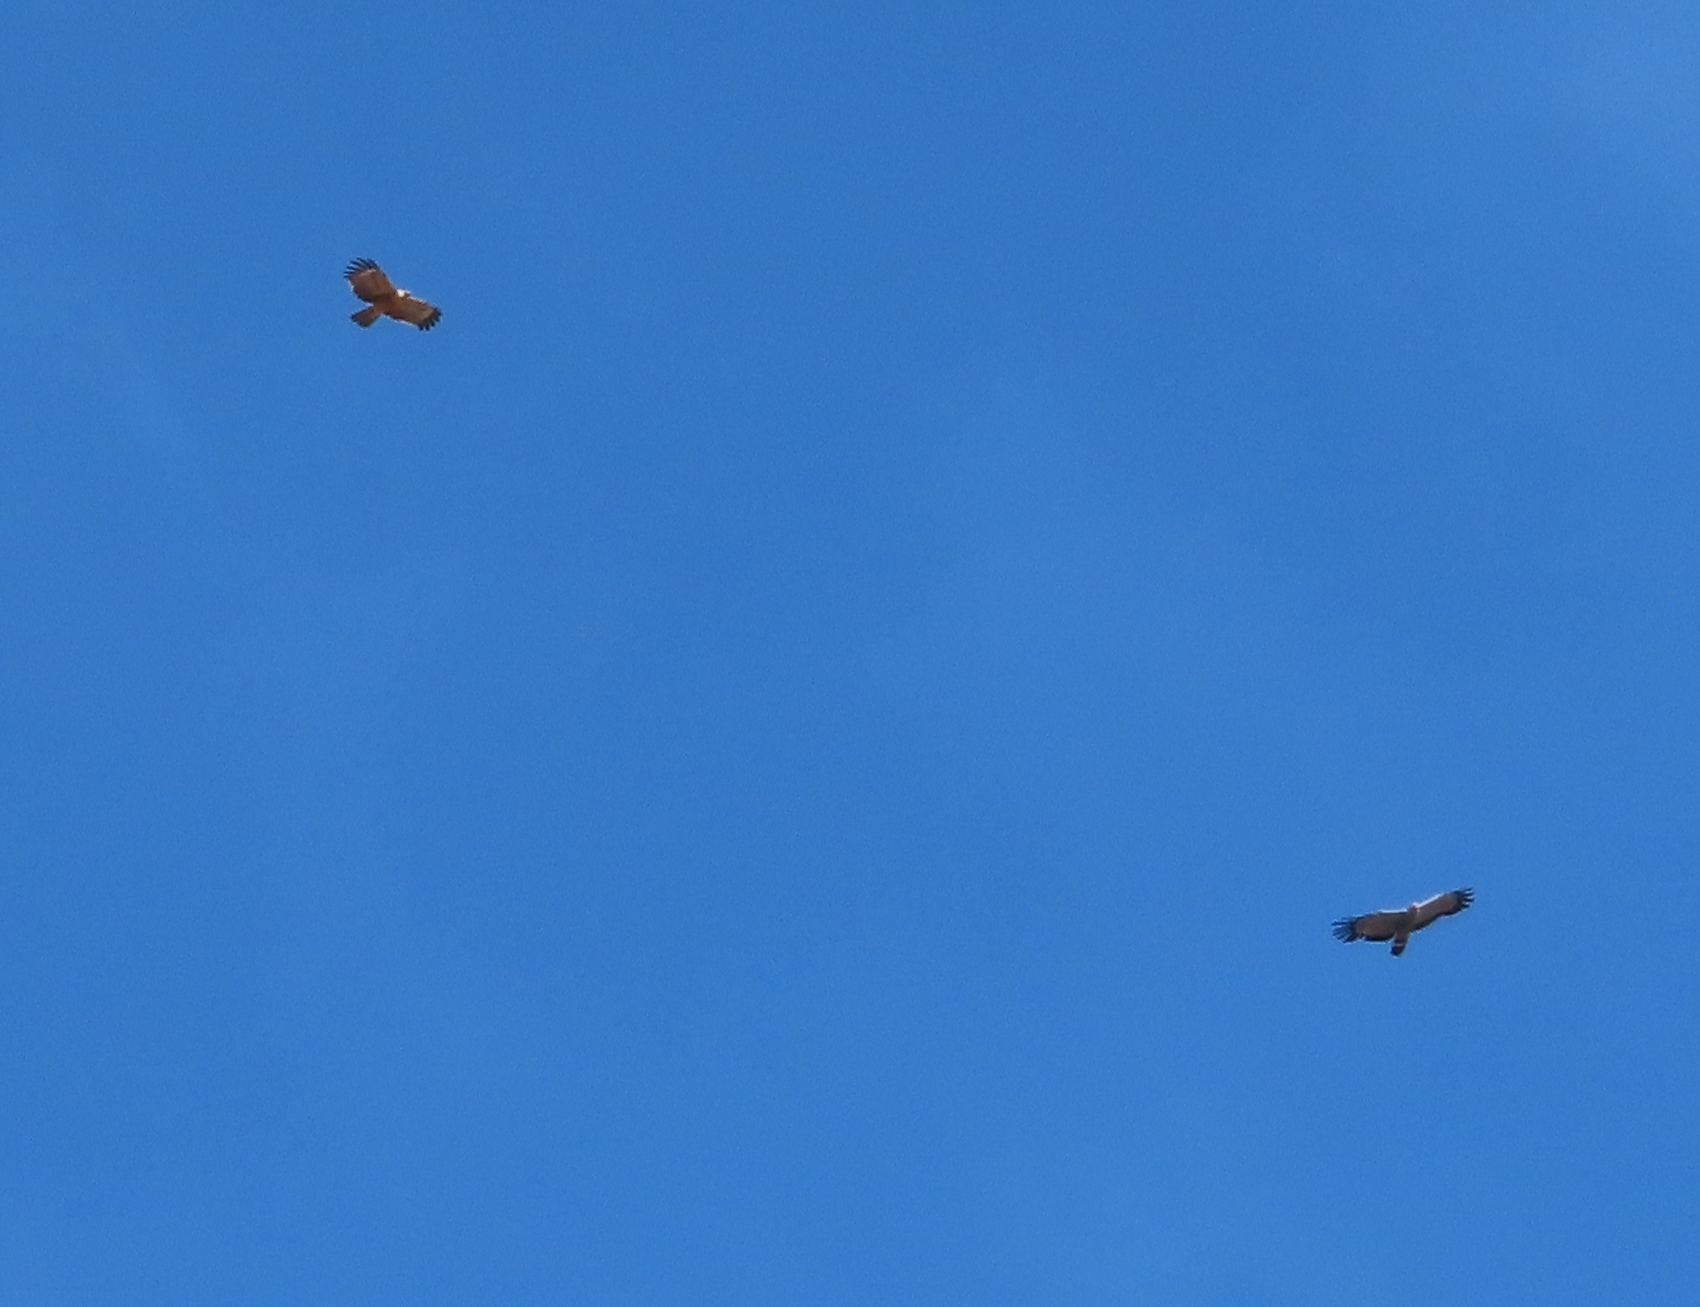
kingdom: Animalia
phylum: Chordata
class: Aves
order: Accipitriformes
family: Accipitridae
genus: Polyboroides
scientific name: Polyboroides typus
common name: African harrier-hawk
